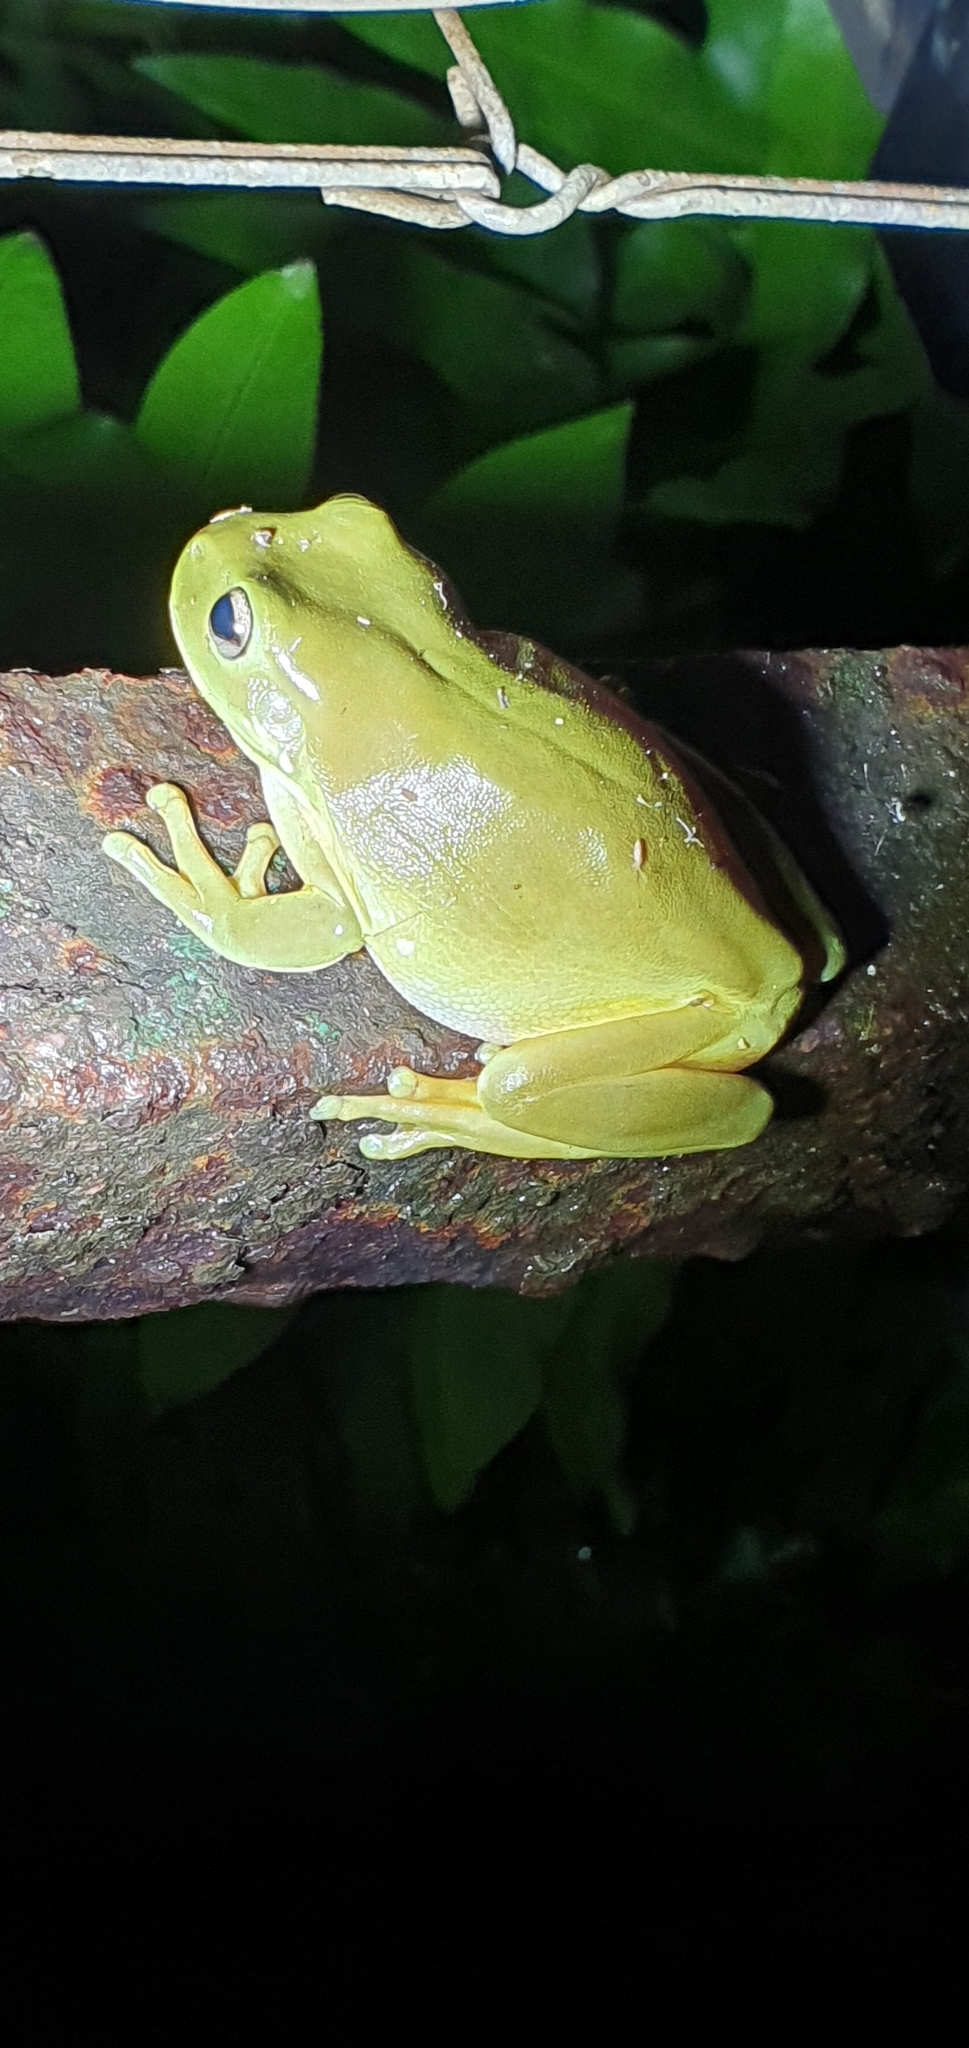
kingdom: Animalia
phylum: Chordata
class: Amphibia
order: Anura
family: Pelodryadidae
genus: Ranoidea
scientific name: Ranoidea caerulea
